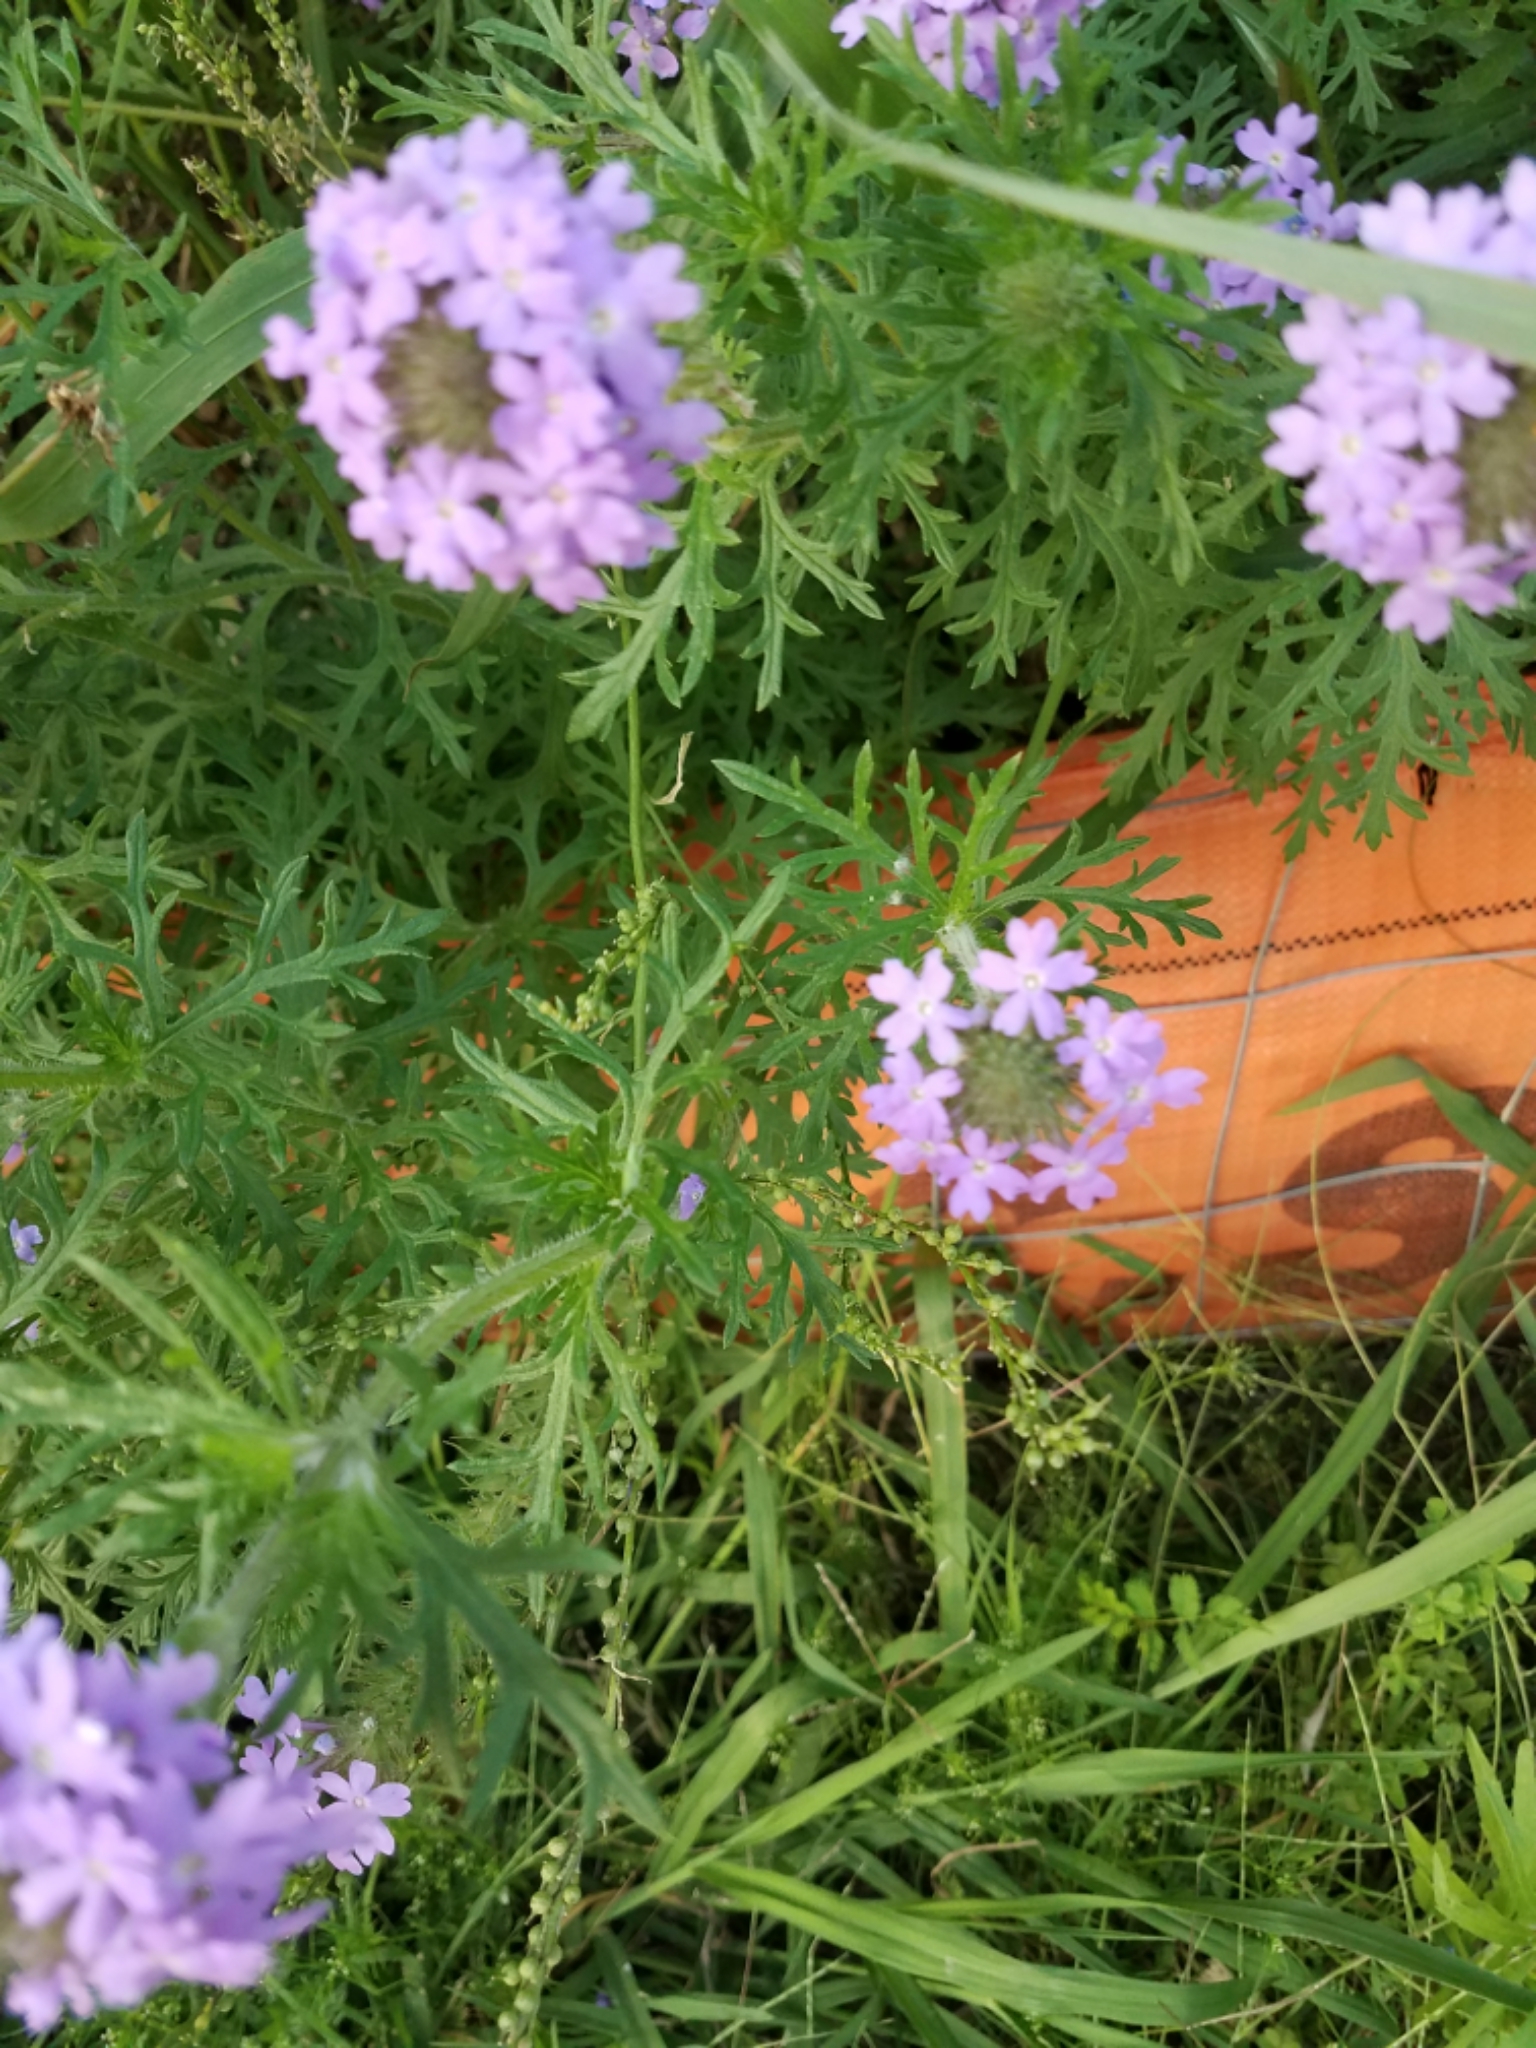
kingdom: Plantae
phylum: Tracheophyta
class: Magnoliopsida
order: Lamiales
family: Verbenaceae
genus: Verbena
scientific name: Verbena bipinnatifida
